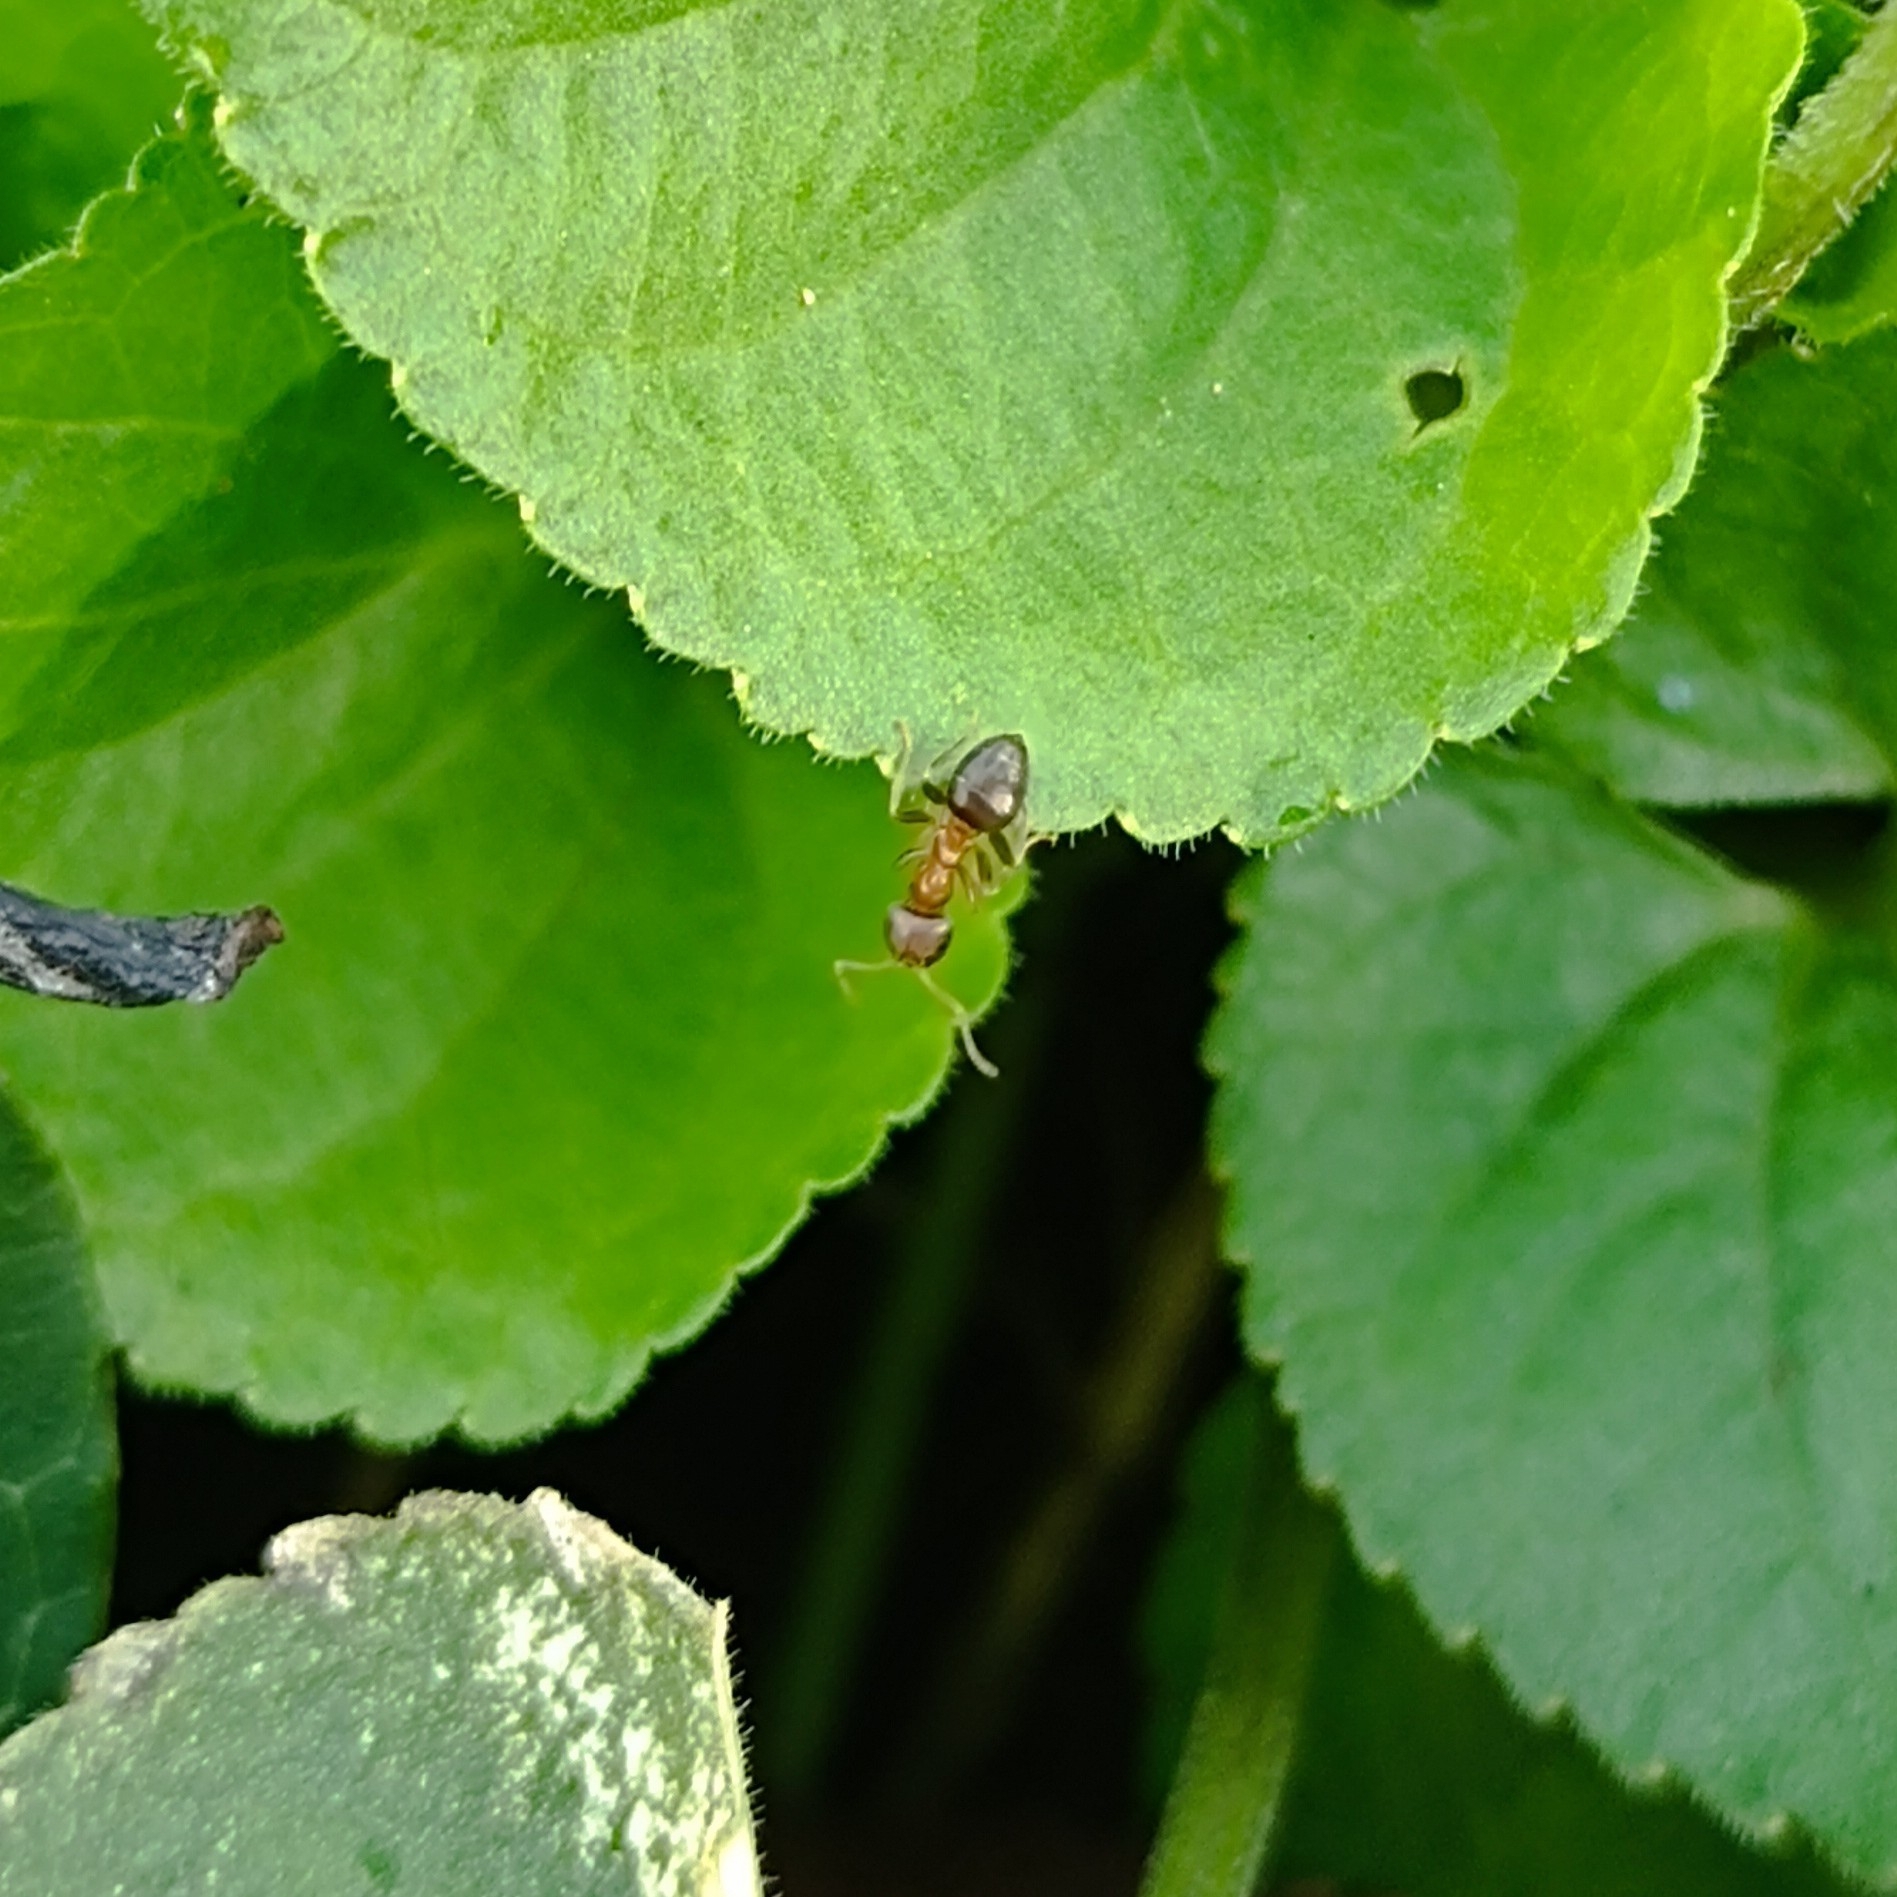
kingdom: Animalia
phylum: Arthropoda
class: Insecta
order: Hymenoptera
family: Formicidae
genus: Lasius
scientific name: Lasius brunneus
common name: Brown ant
